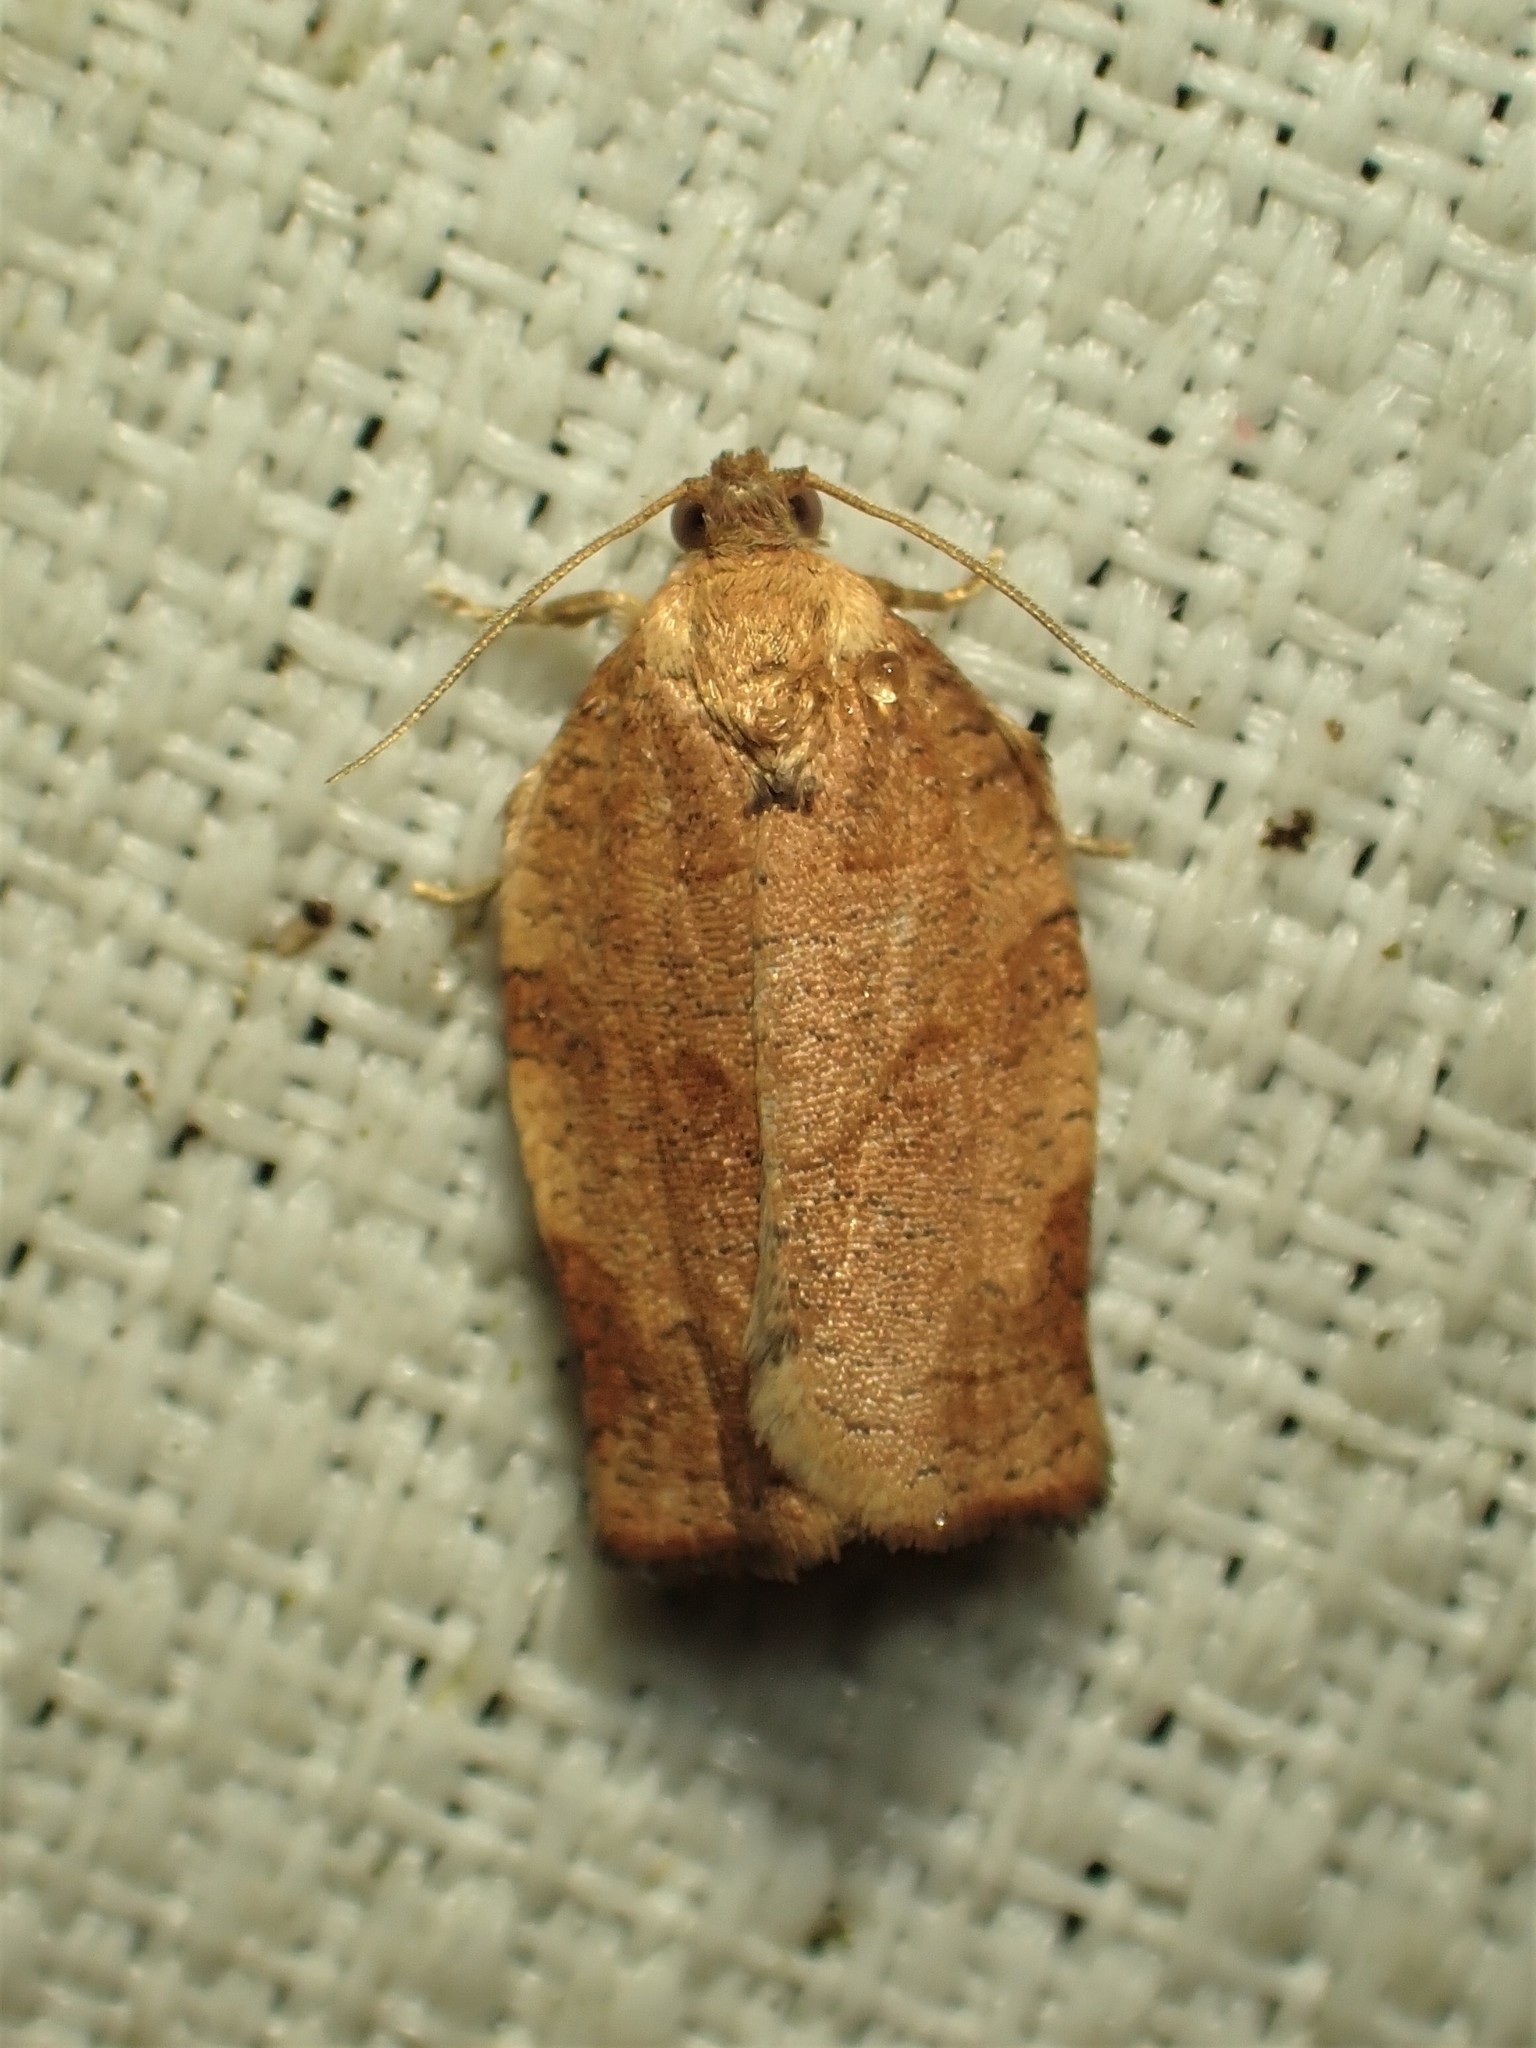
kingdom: Animalia
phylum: Arthropoda
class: Insecta
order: Lepidoptera
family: Tortricidae
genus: Choristoneura
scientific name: Choristoneura rosaceana
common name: Oblique-banded leafroller moth
